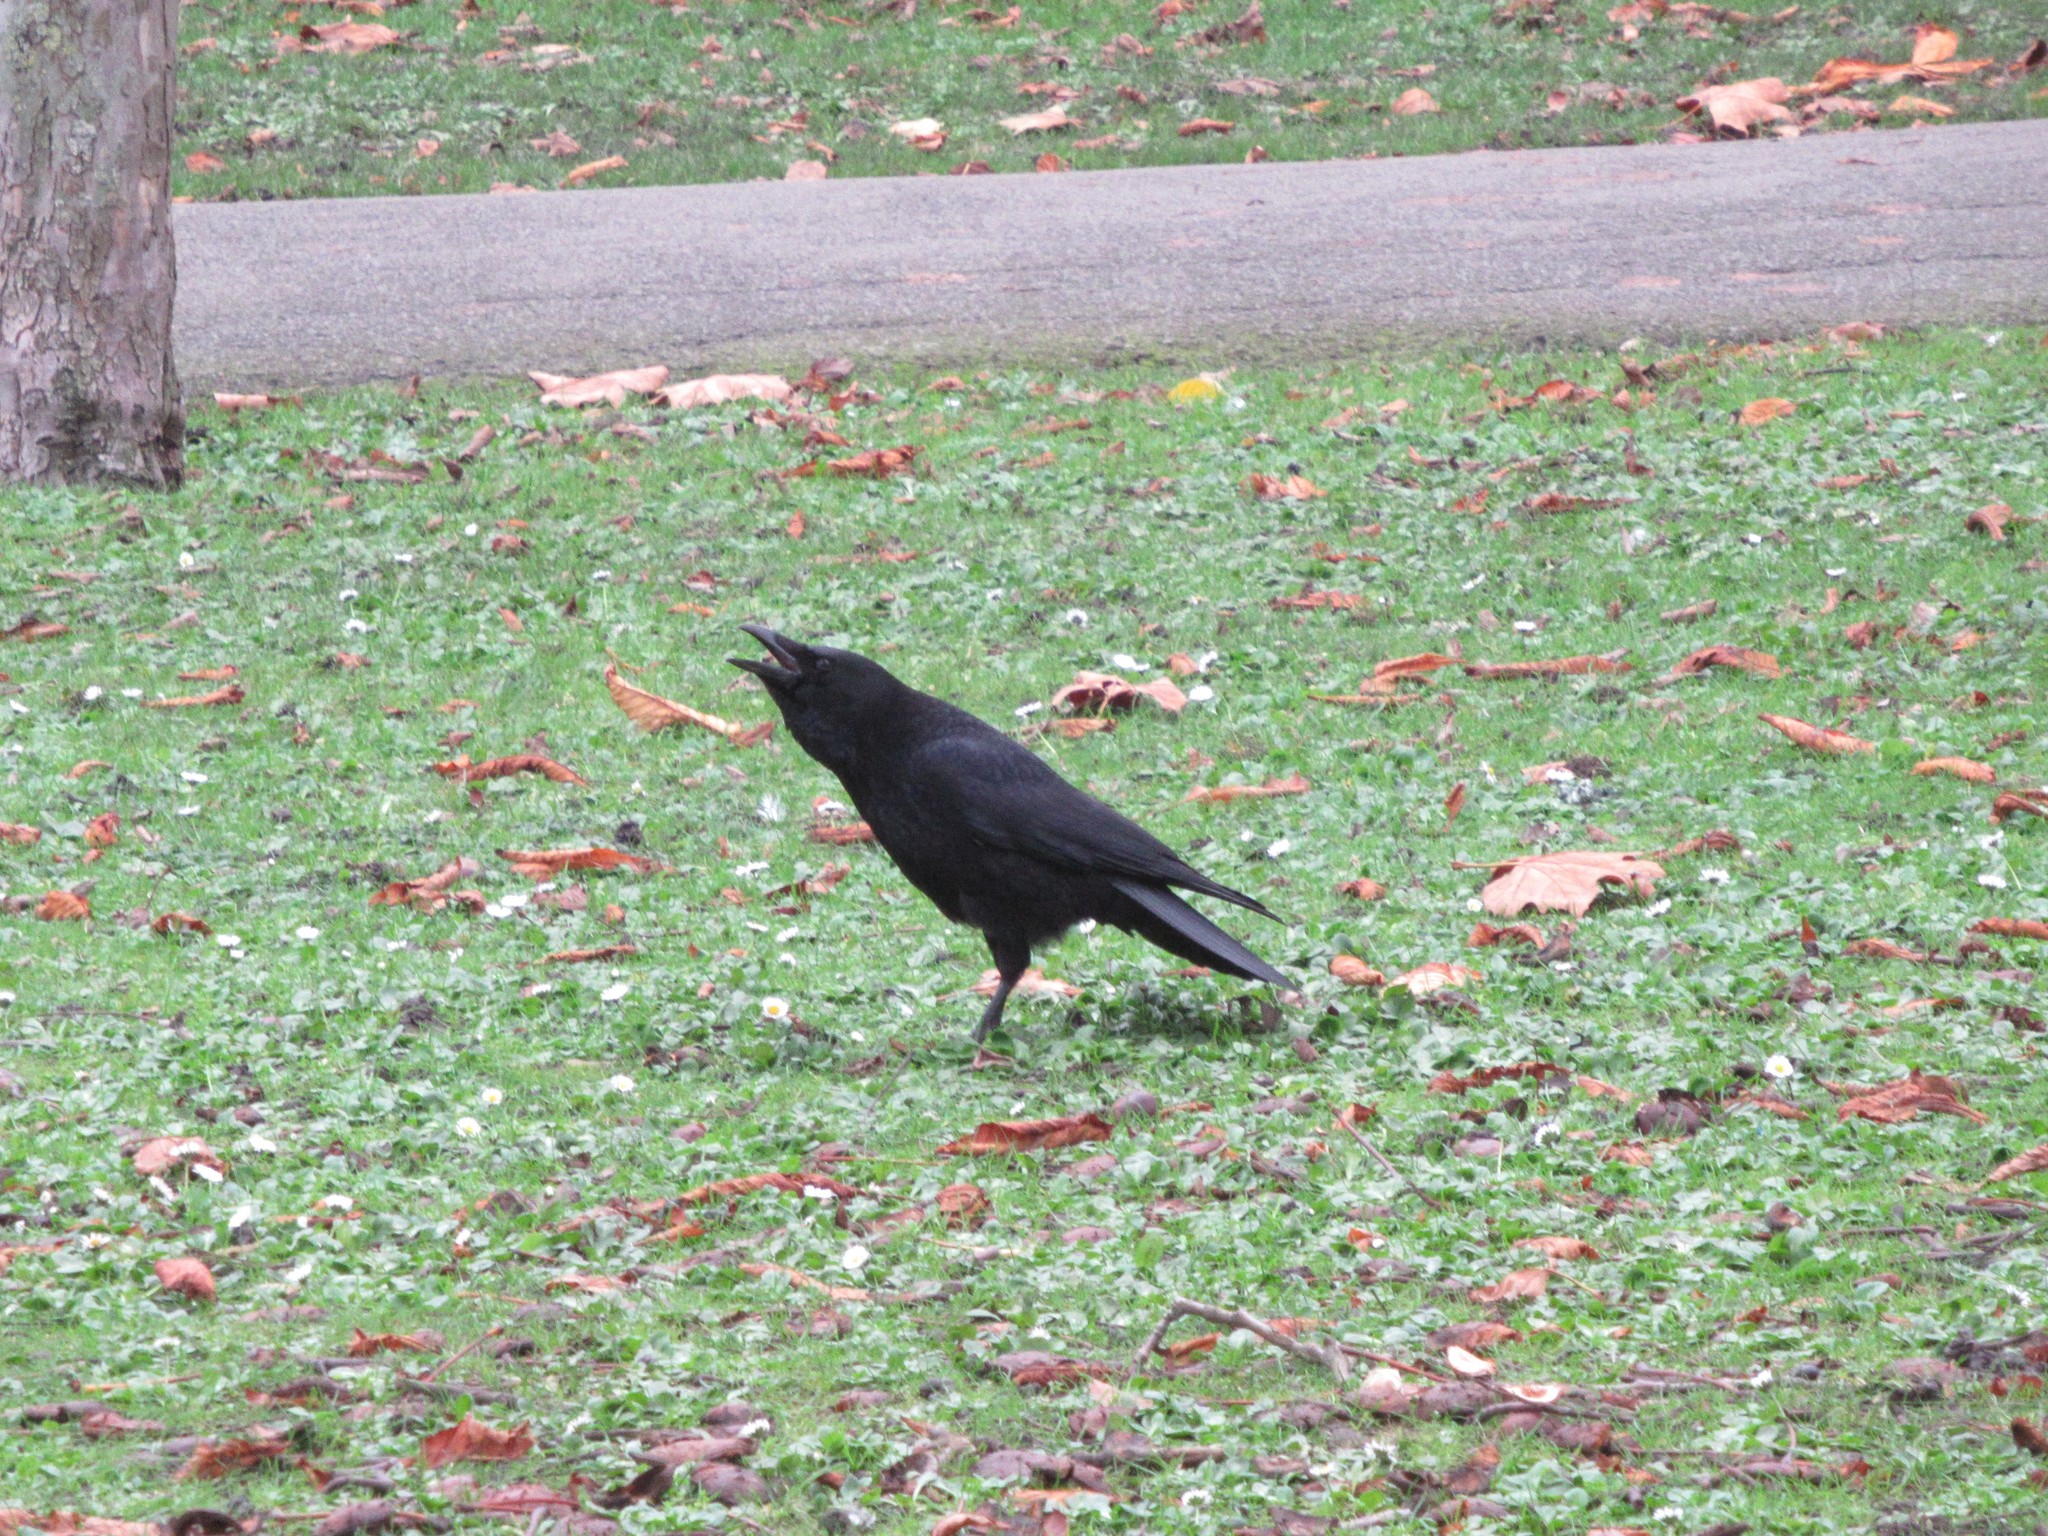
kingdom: Animalia
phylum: Chordata
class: Aves
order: Passeriformes
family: Corvidae
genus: Corvus
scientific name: Corvus corone
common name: Carrion crow
